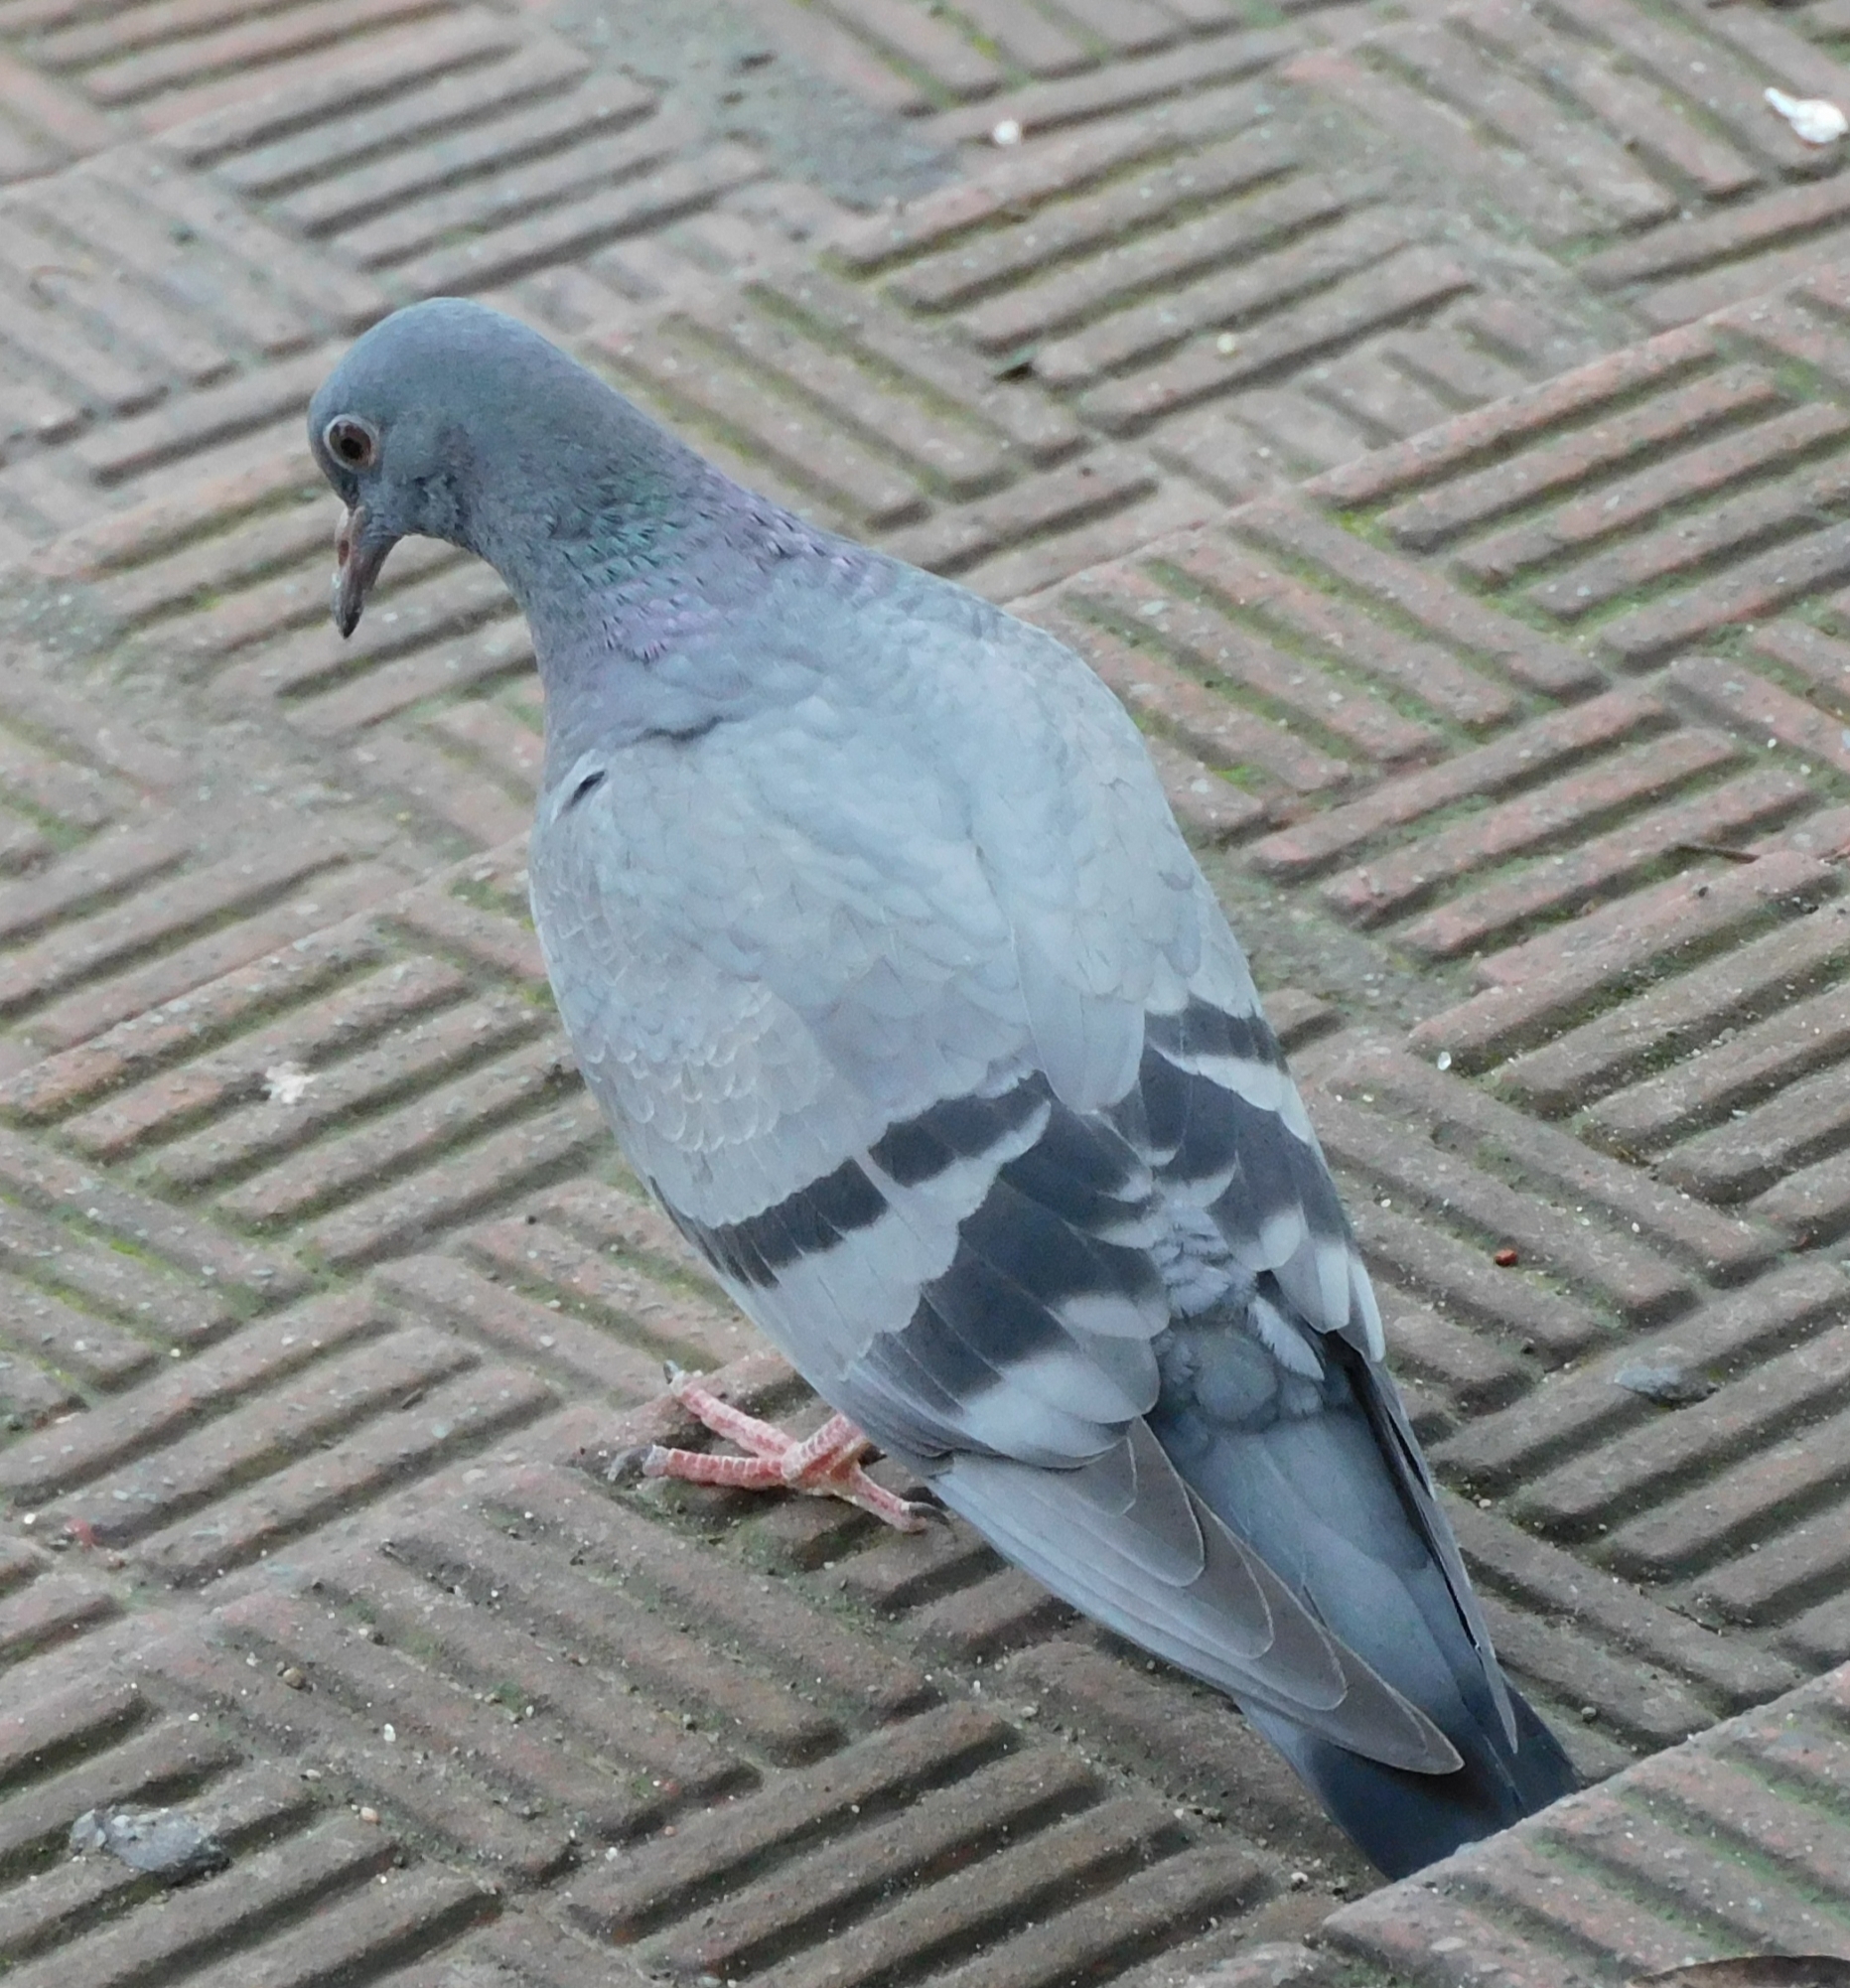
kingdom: Animalia
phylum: Chordata
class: Aves
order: Columbiformes
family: Columbidae
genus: Columba
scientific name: Columba livia
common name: Rock pigeon
